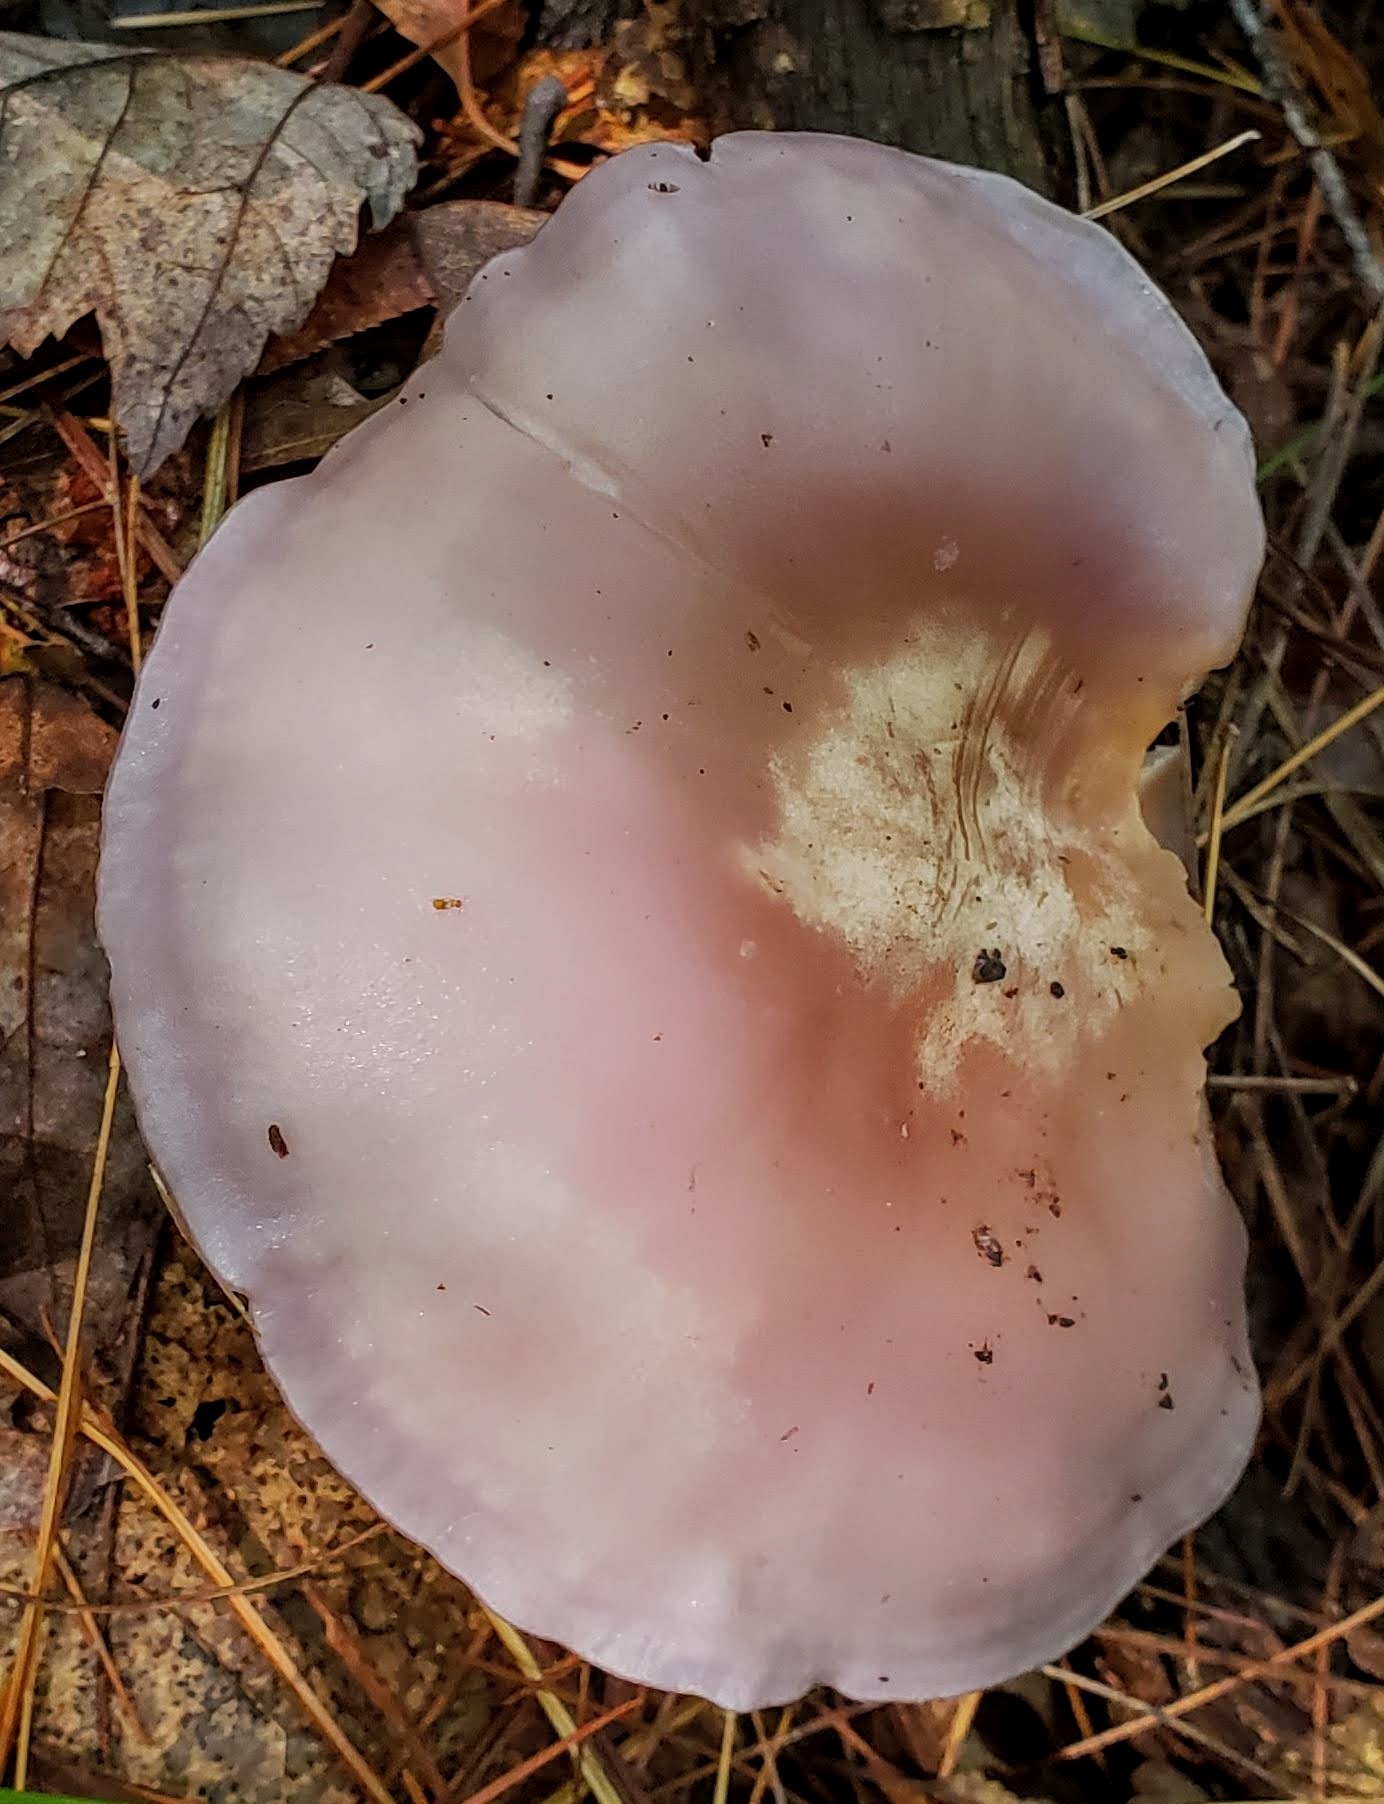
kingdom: Fungi
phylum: Basidiomycota
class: Agaricomycetes
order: Agaricales
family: Tricholomataceae
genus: Collybia
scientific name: Collybia
